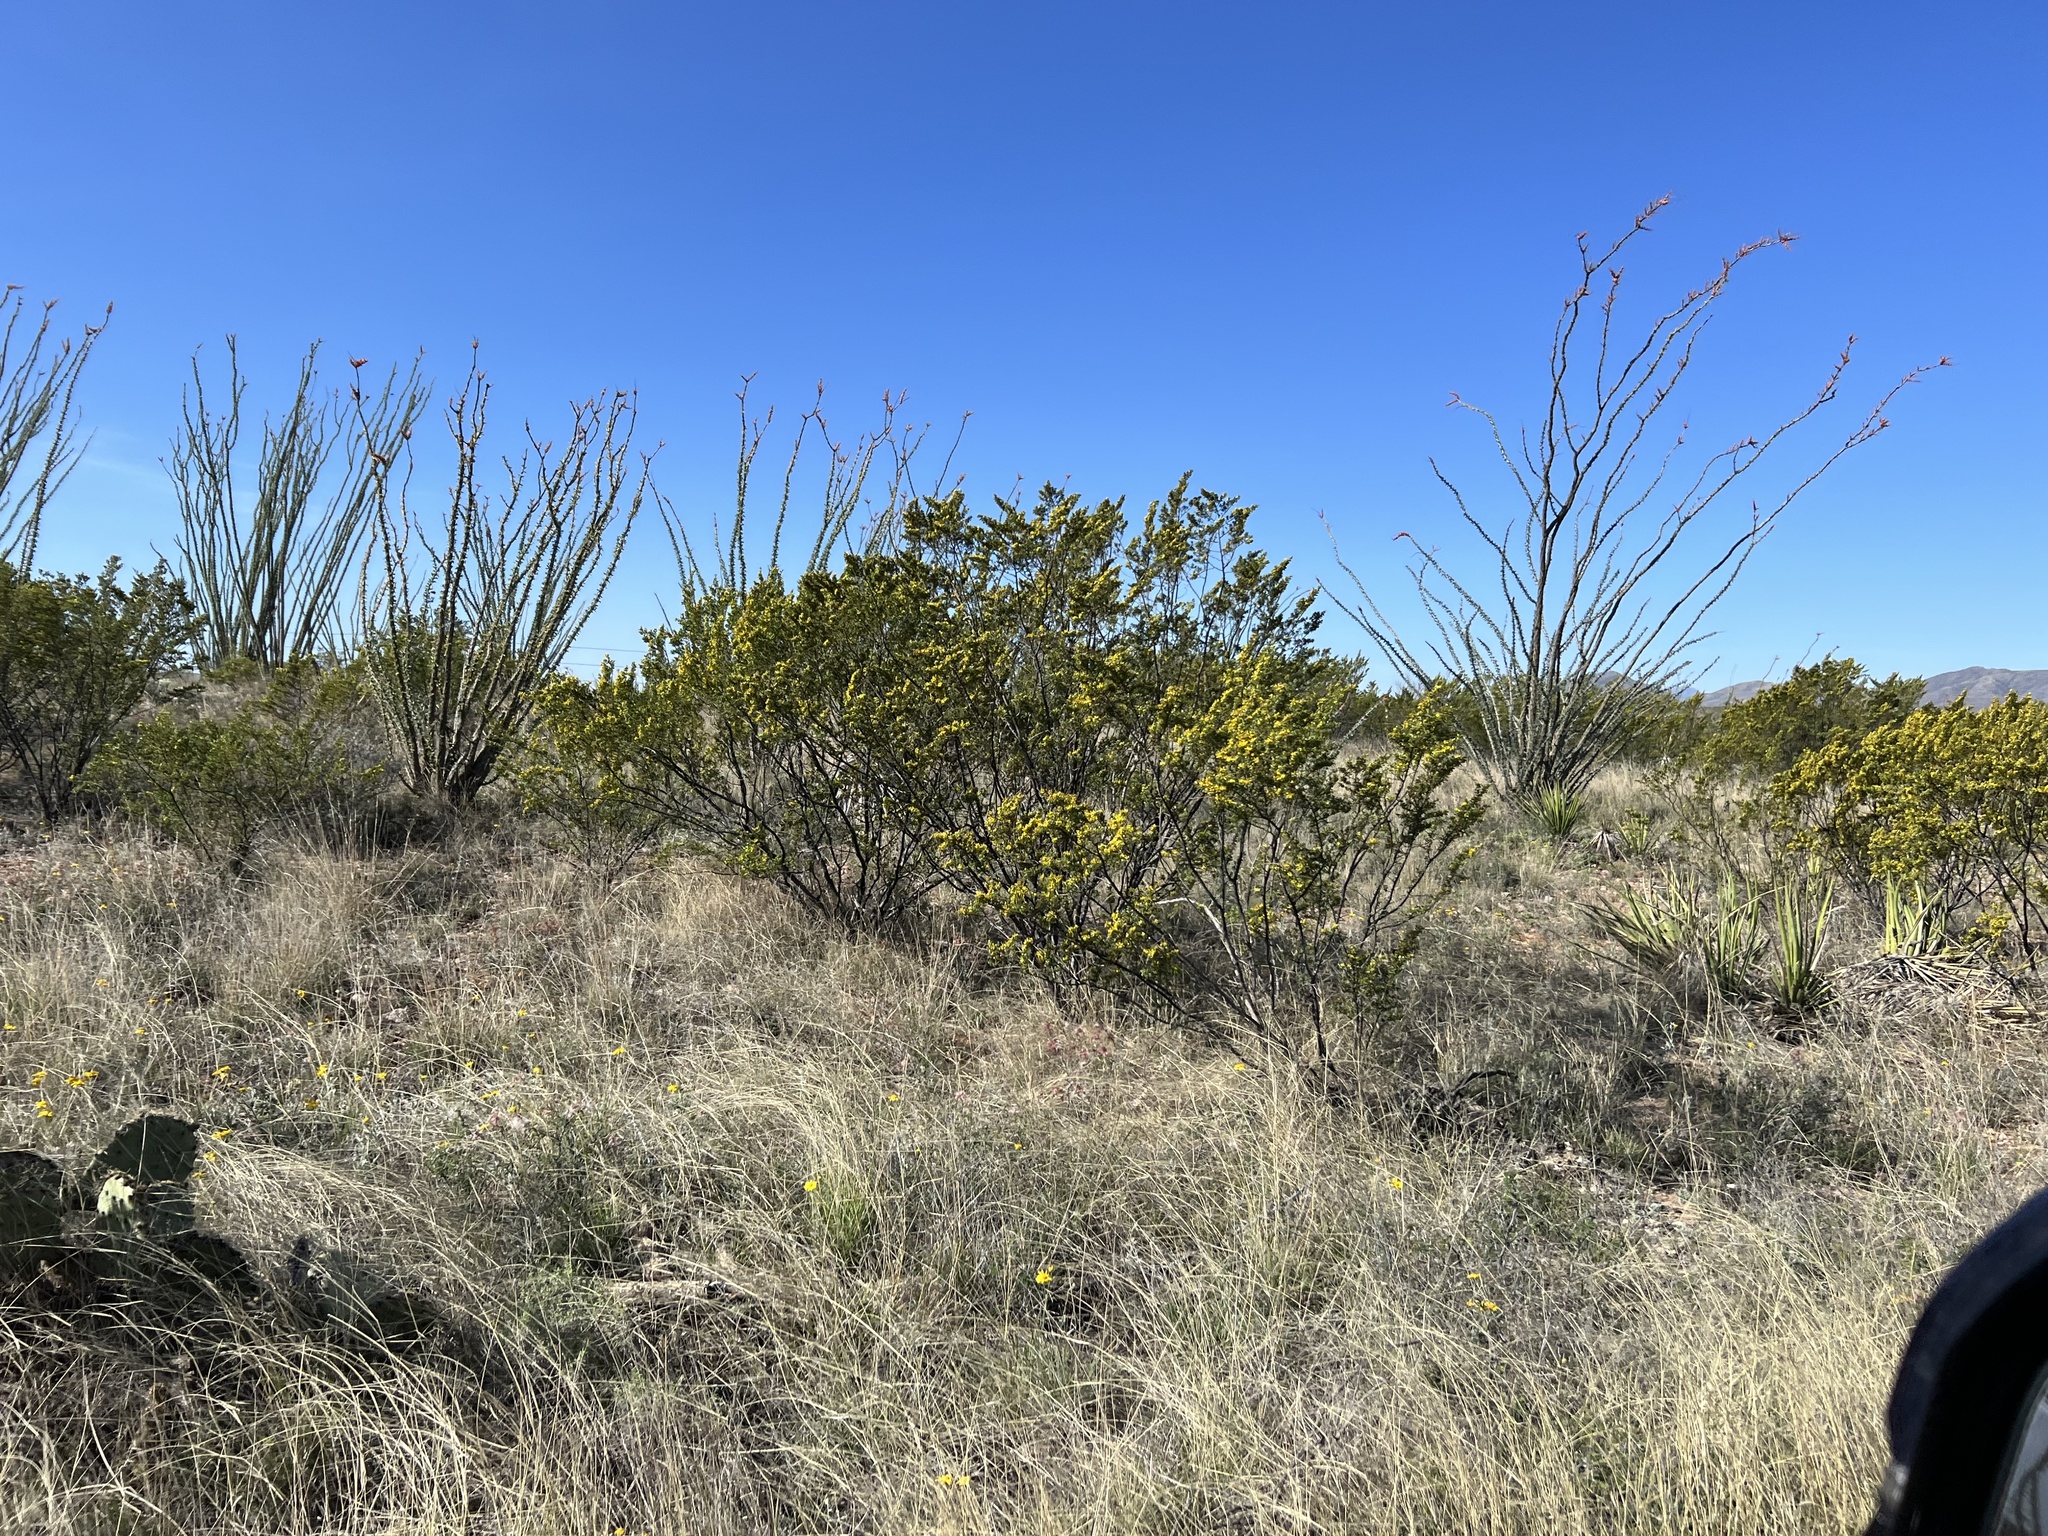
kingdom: Plantae
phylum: Tracheophyta
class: Magnoliopsida
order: Zygophyllales
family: Zygophyllaceae
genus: Larrea
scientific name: Larrea tridentata
